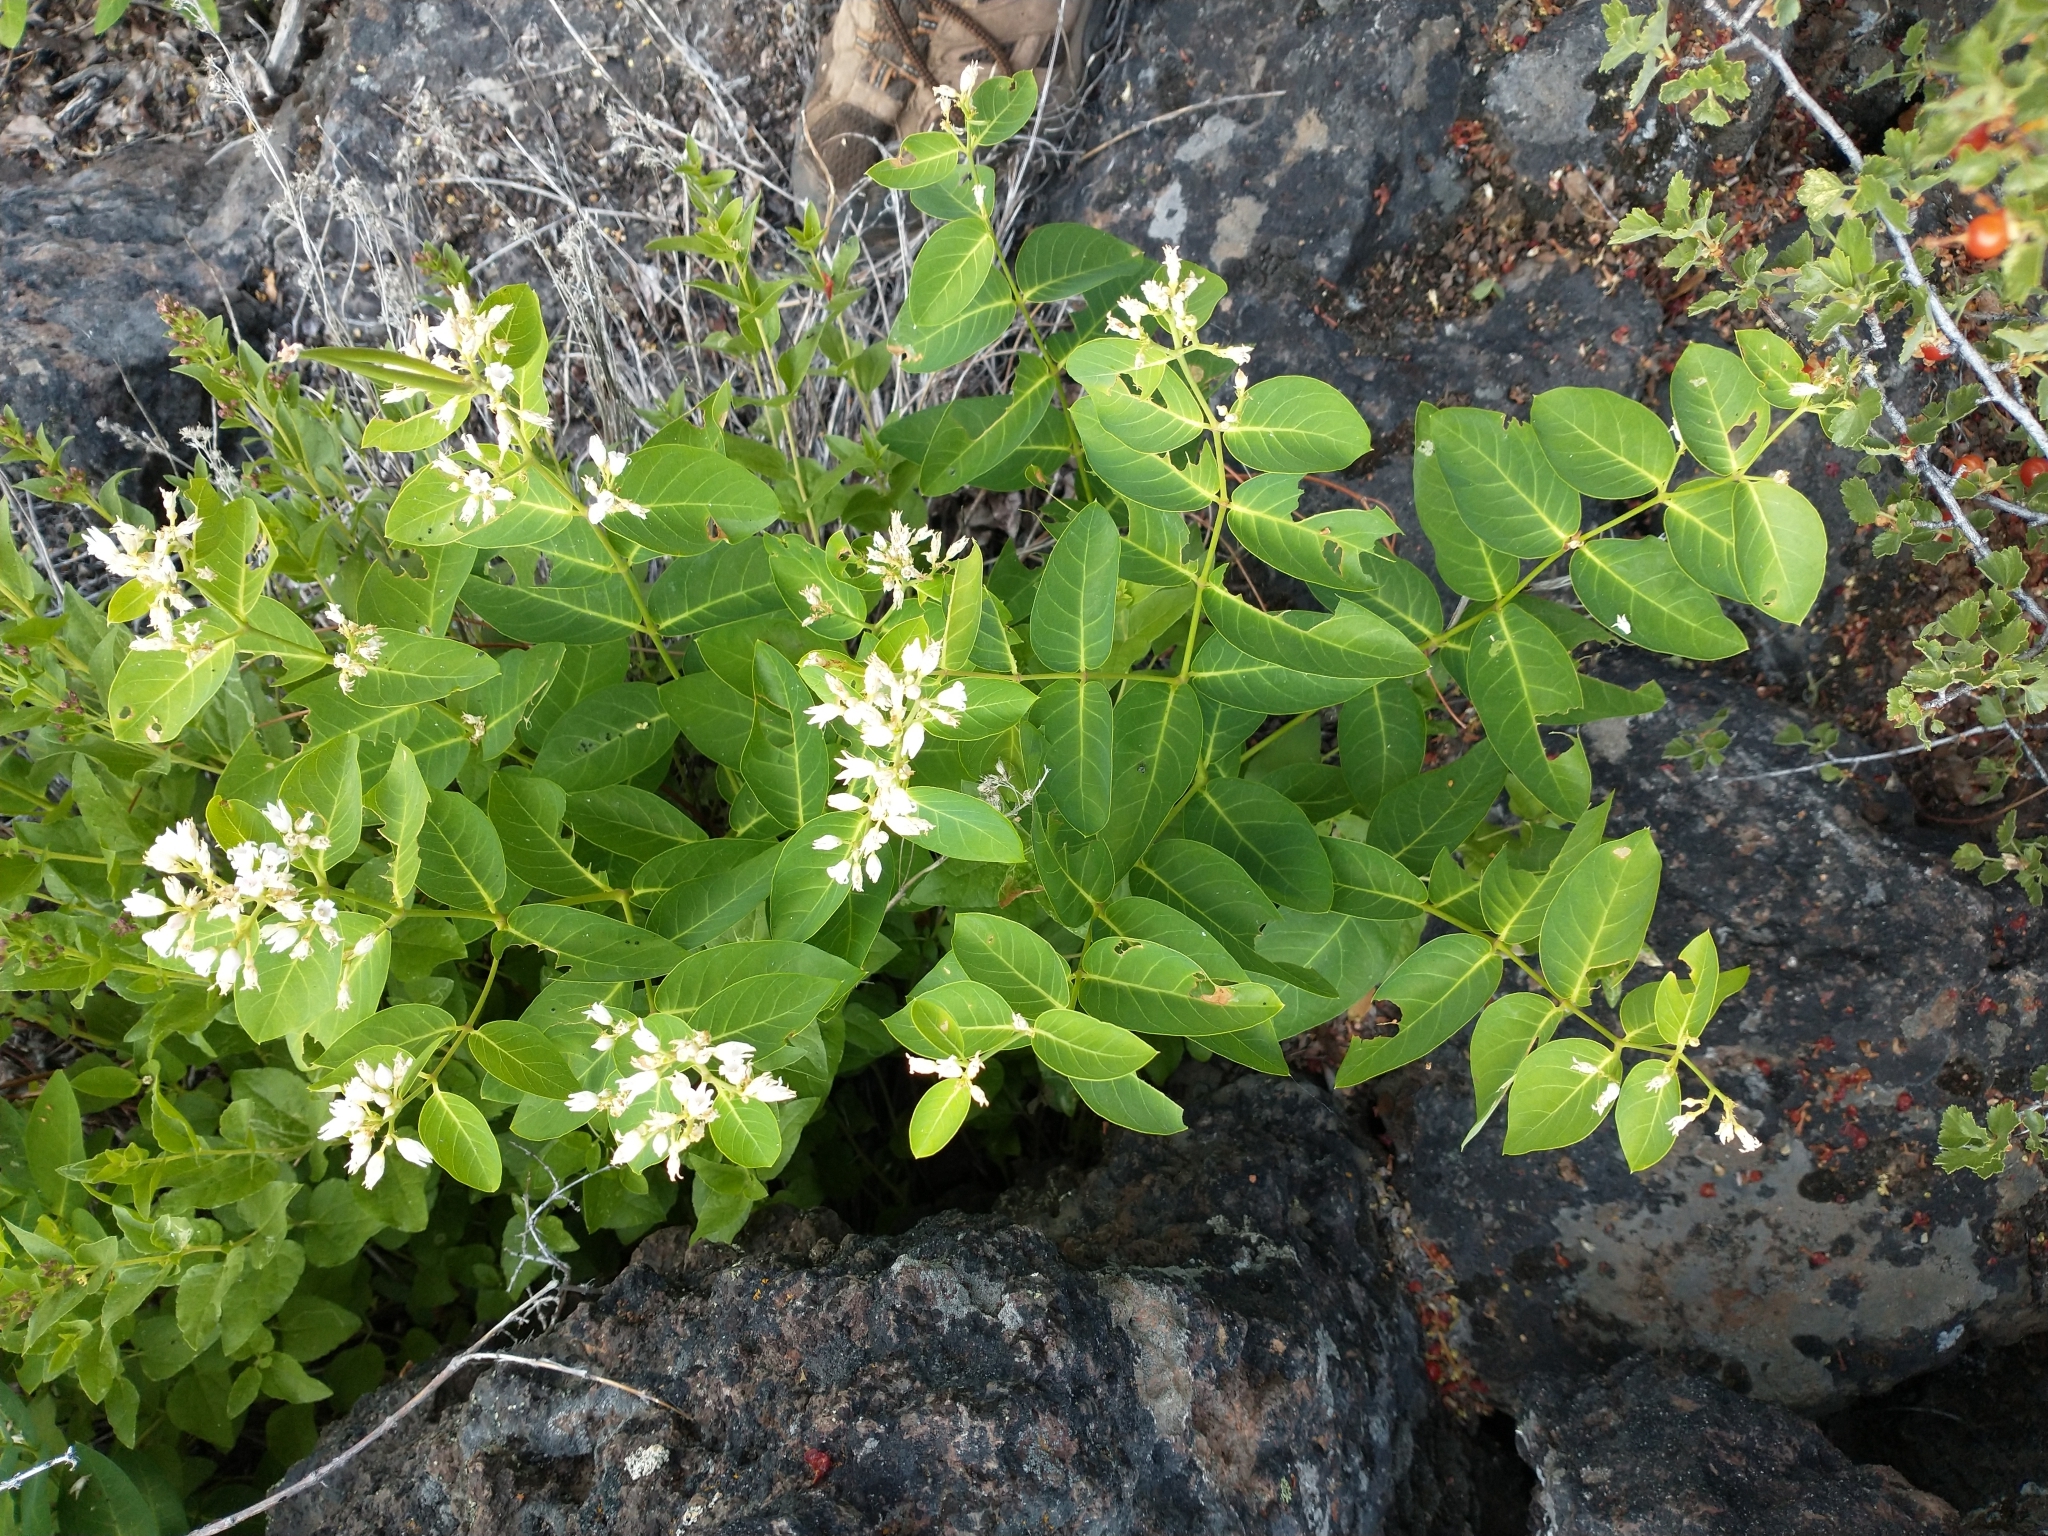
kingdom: Plantae
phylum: Tracheophyta
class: Magnoliopsida
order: Gentianales
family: Apocynaceae
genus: Apocynum
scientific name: Apocynum androsaemifolium
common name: Spreading dogbane
